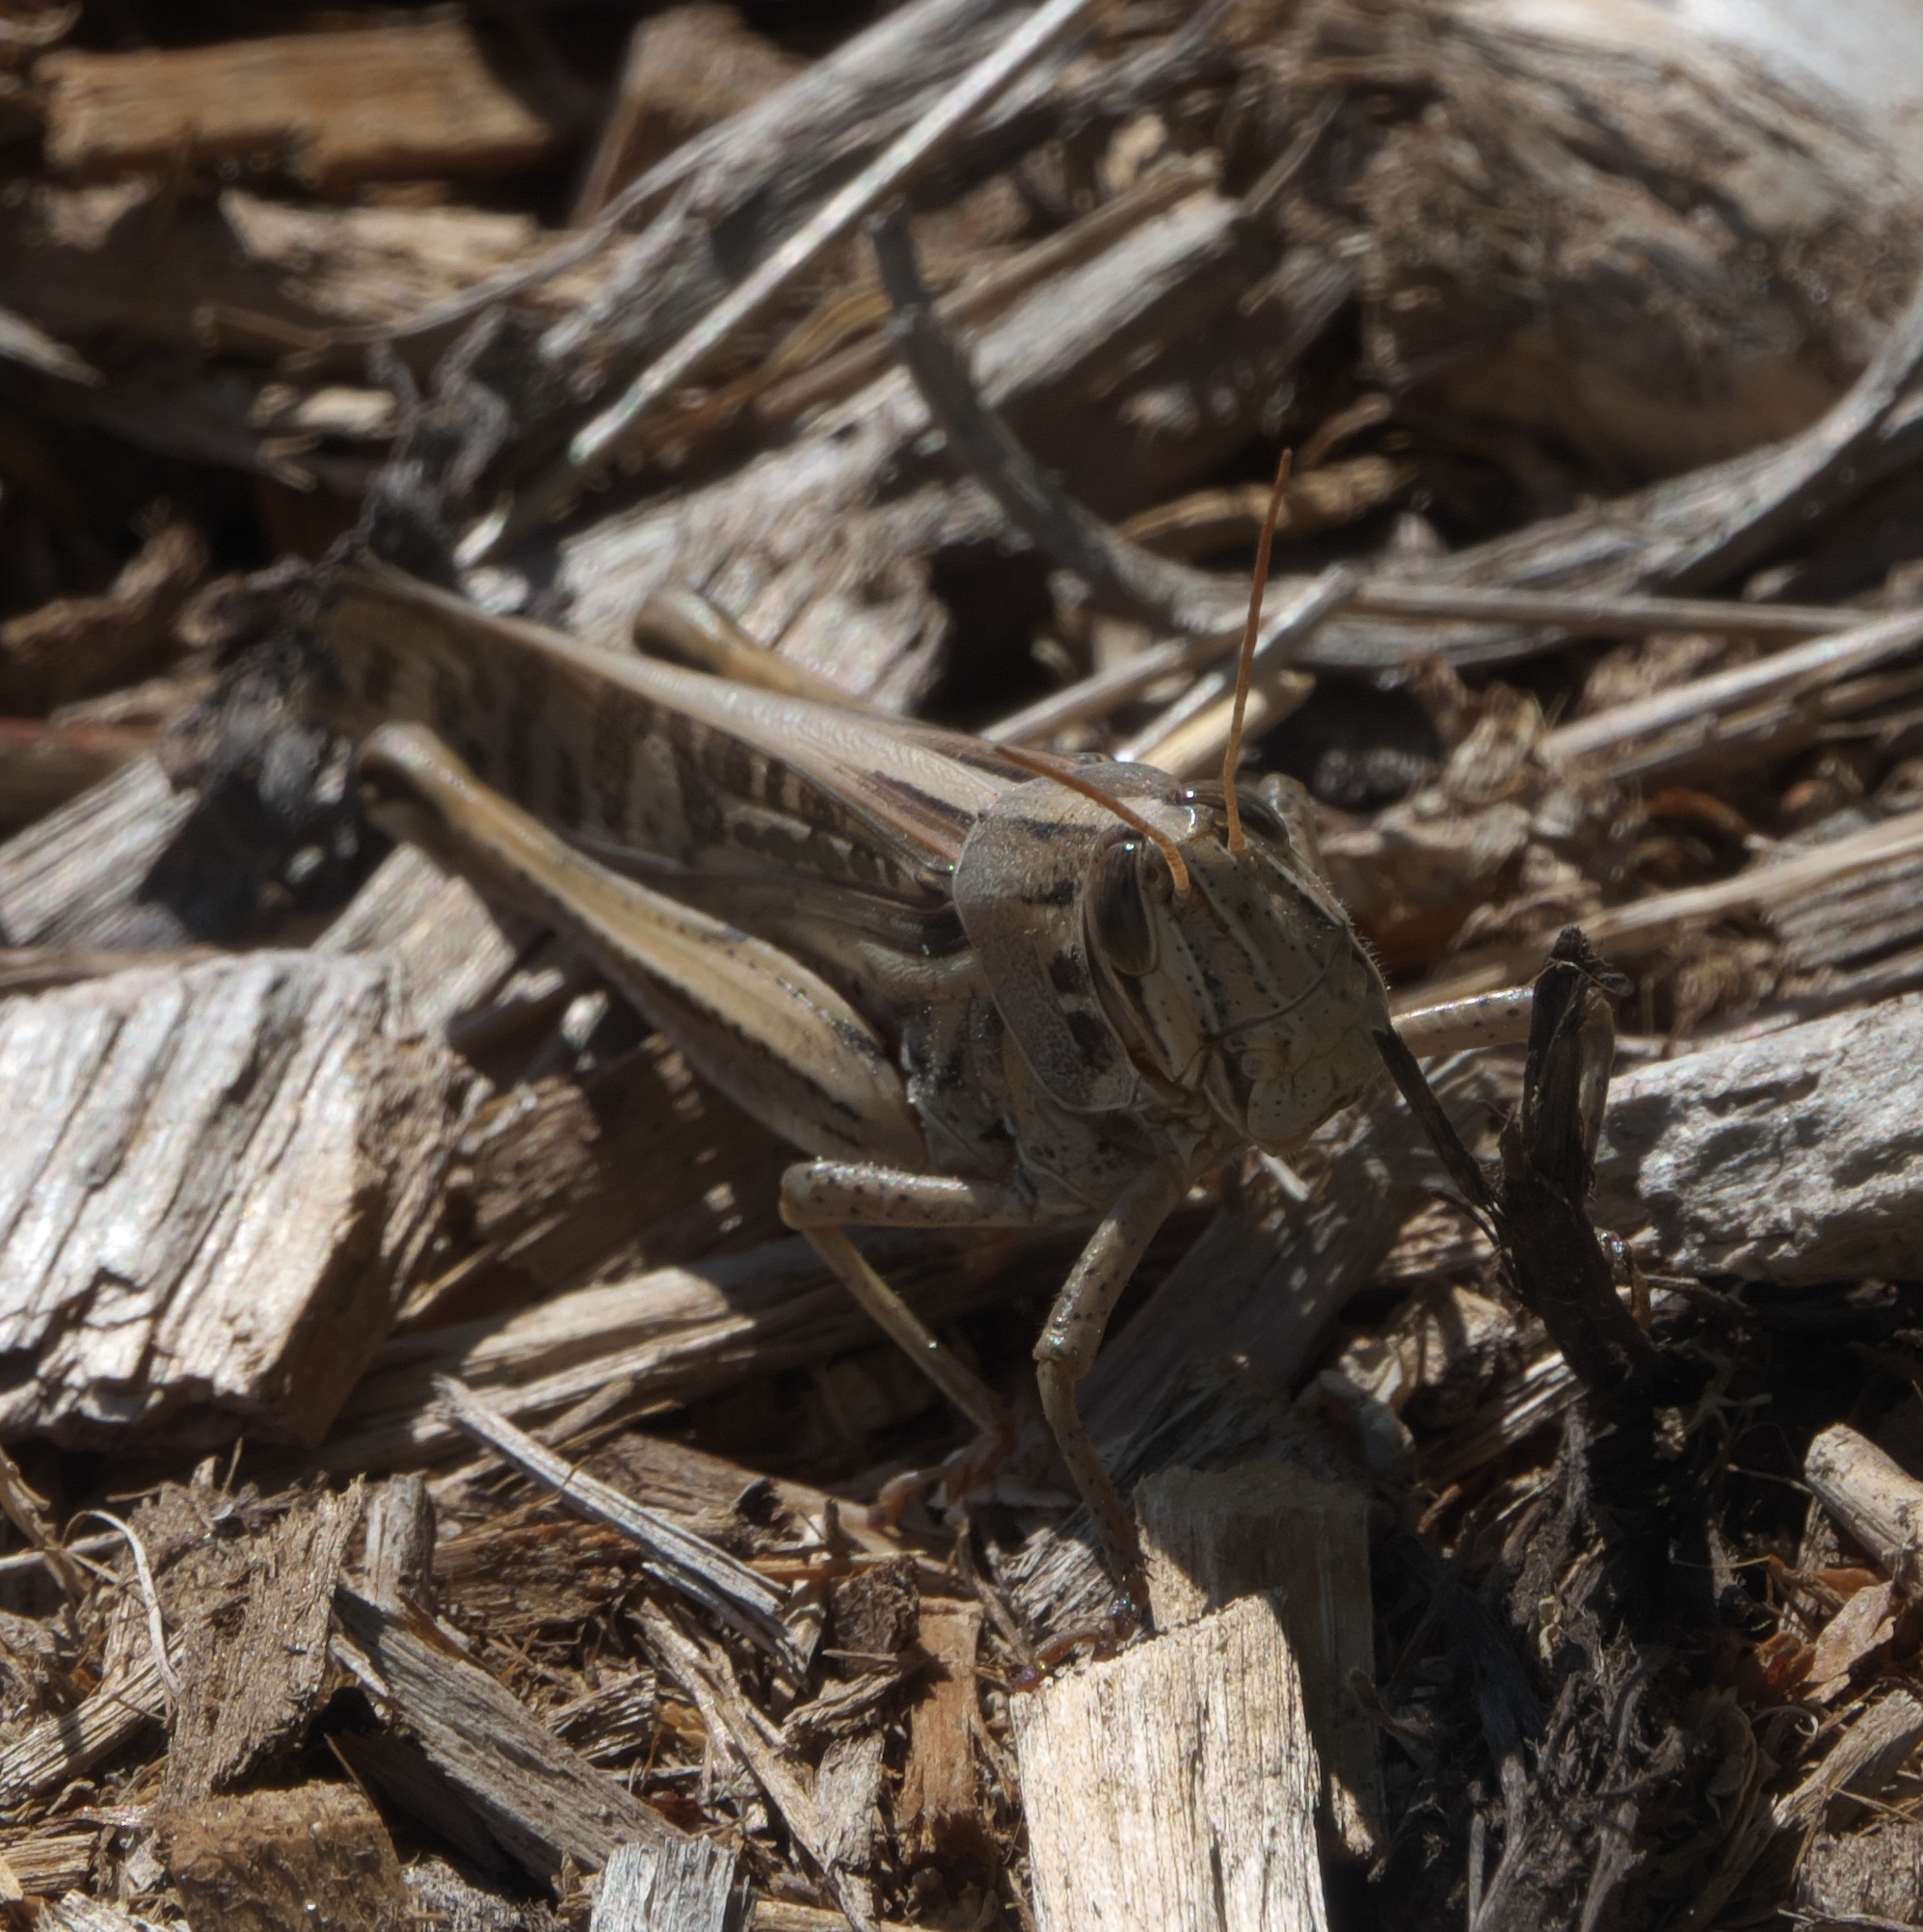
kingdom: Animalia
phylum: Arthropoda
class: Insecta
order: Orthoptera
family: Acrididae
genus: Schistocerca
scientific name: Schistocerca americana
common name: American bird locust
